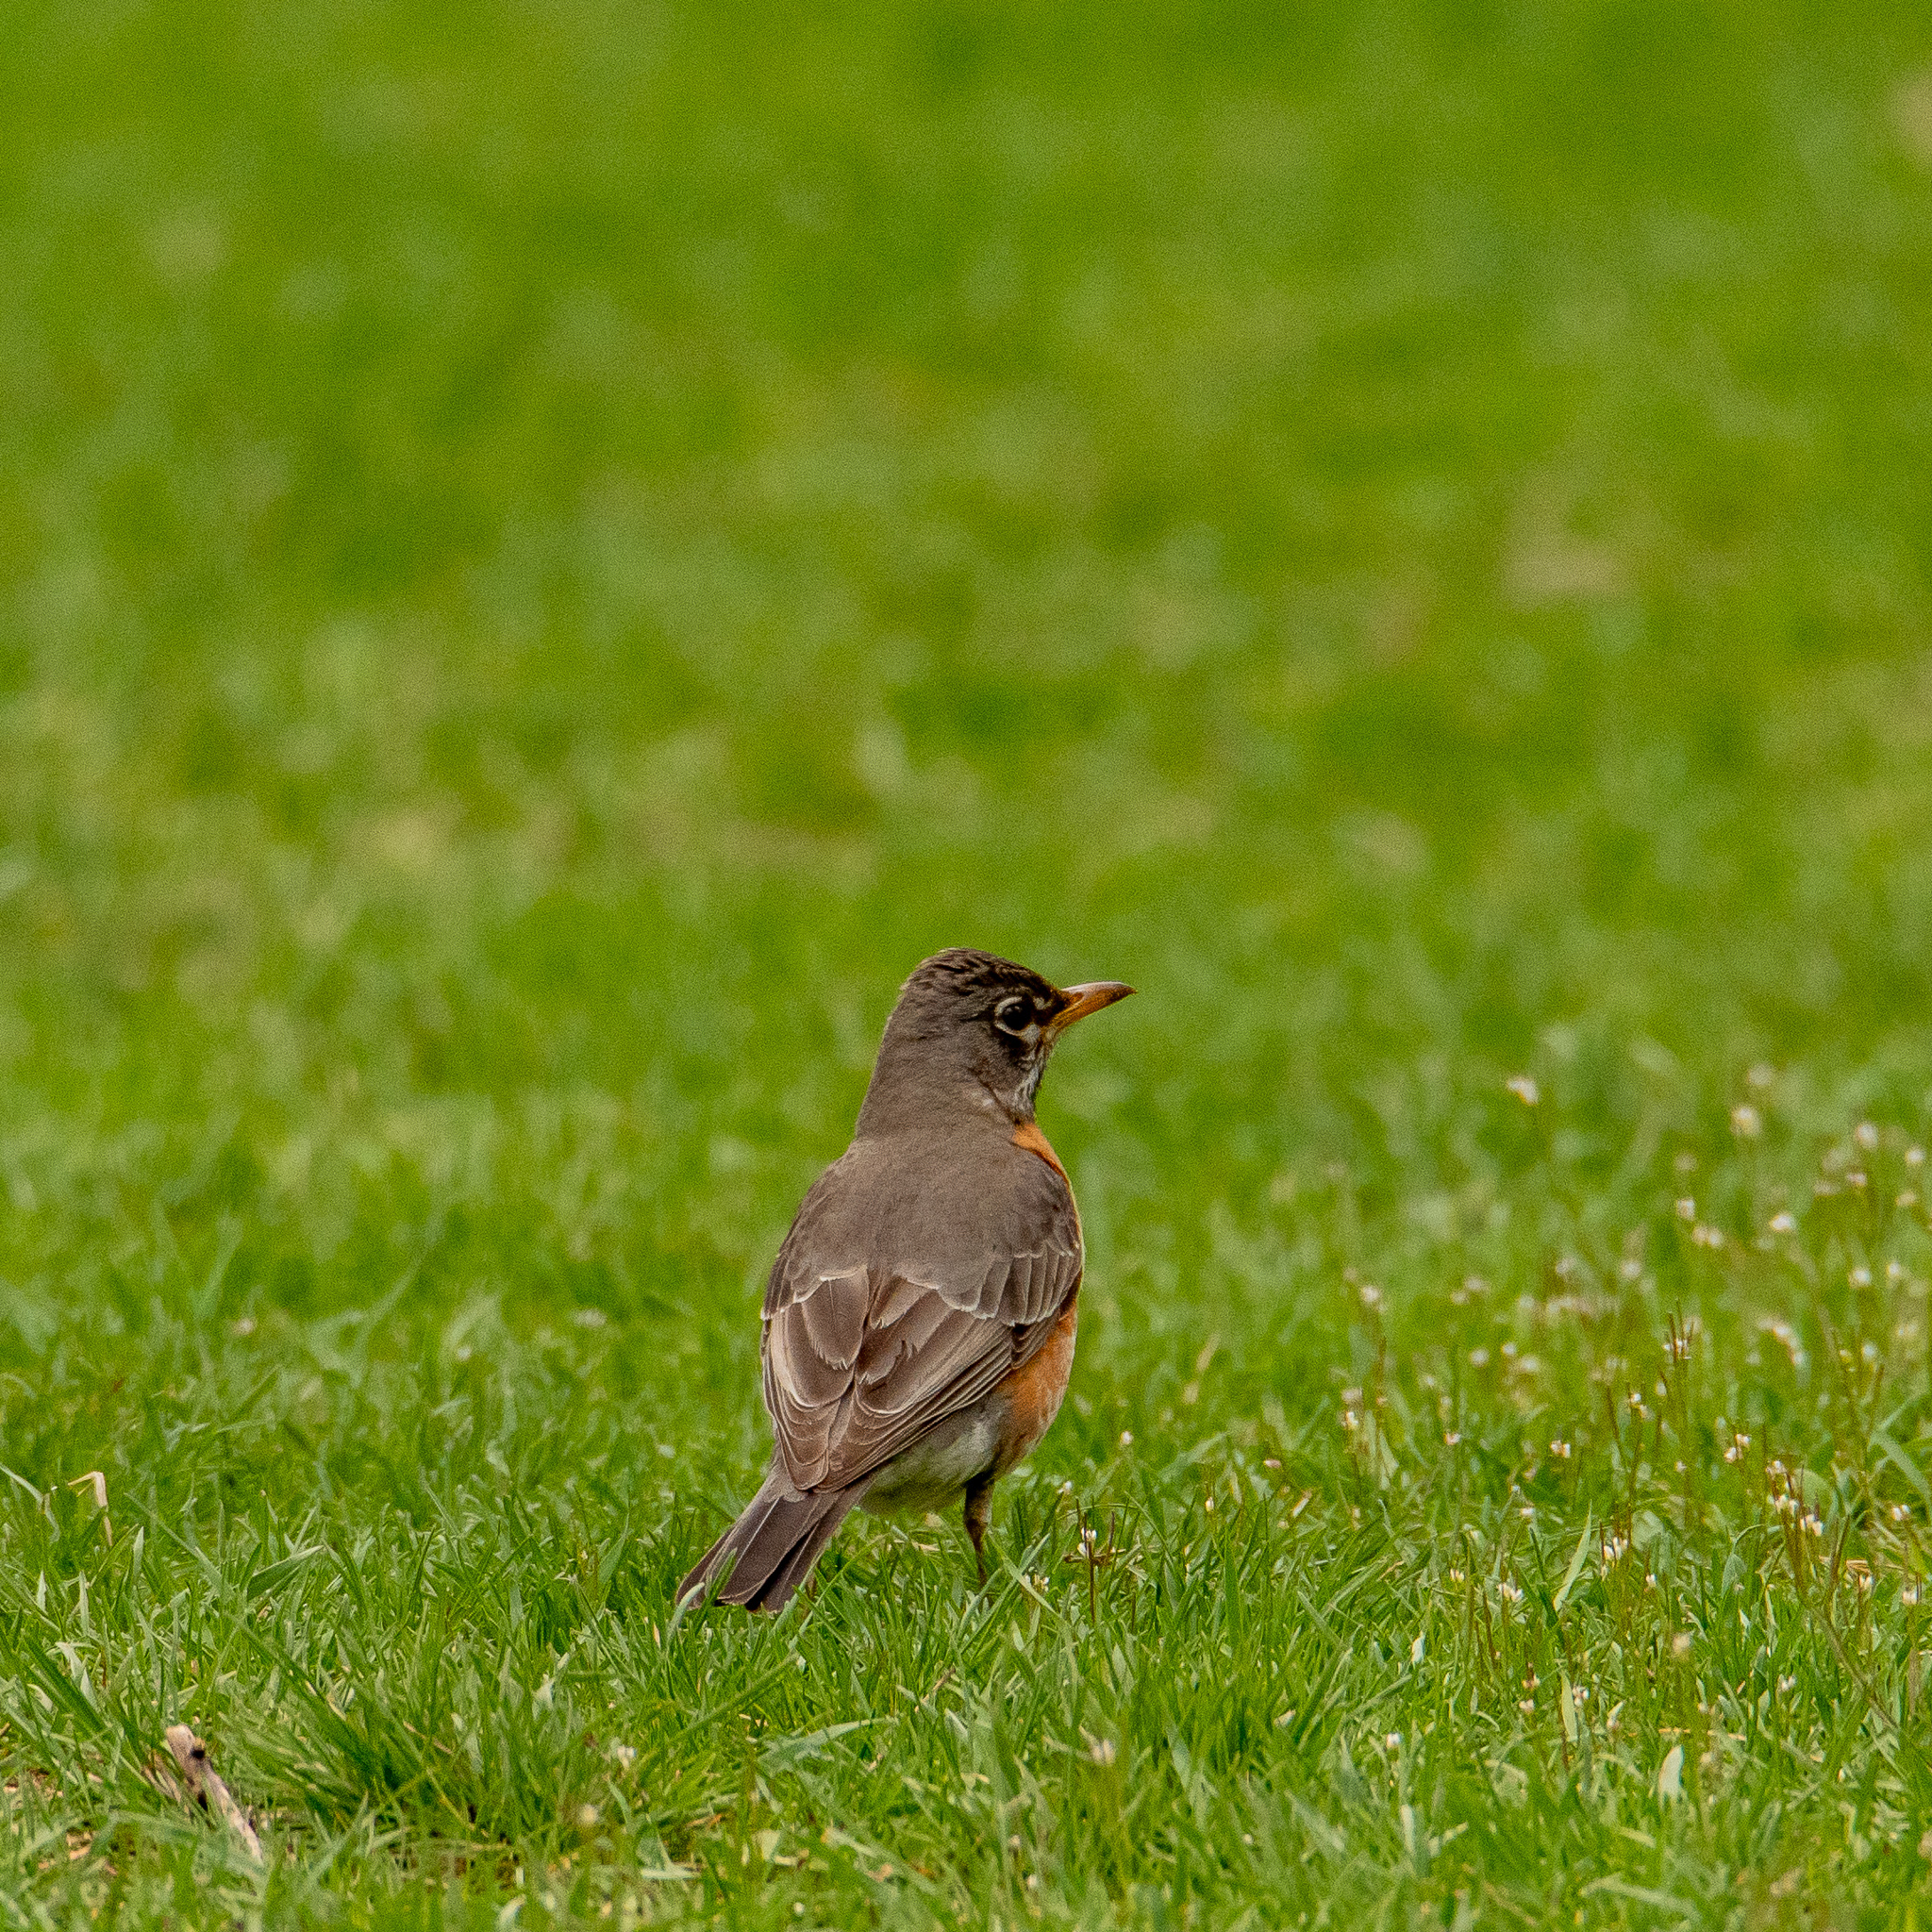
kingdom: Animalia
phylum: Chordata
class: Aves
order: Passeriformes
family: Turdidae
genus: Turdus
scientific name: Turdus migratorius
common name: American robin
